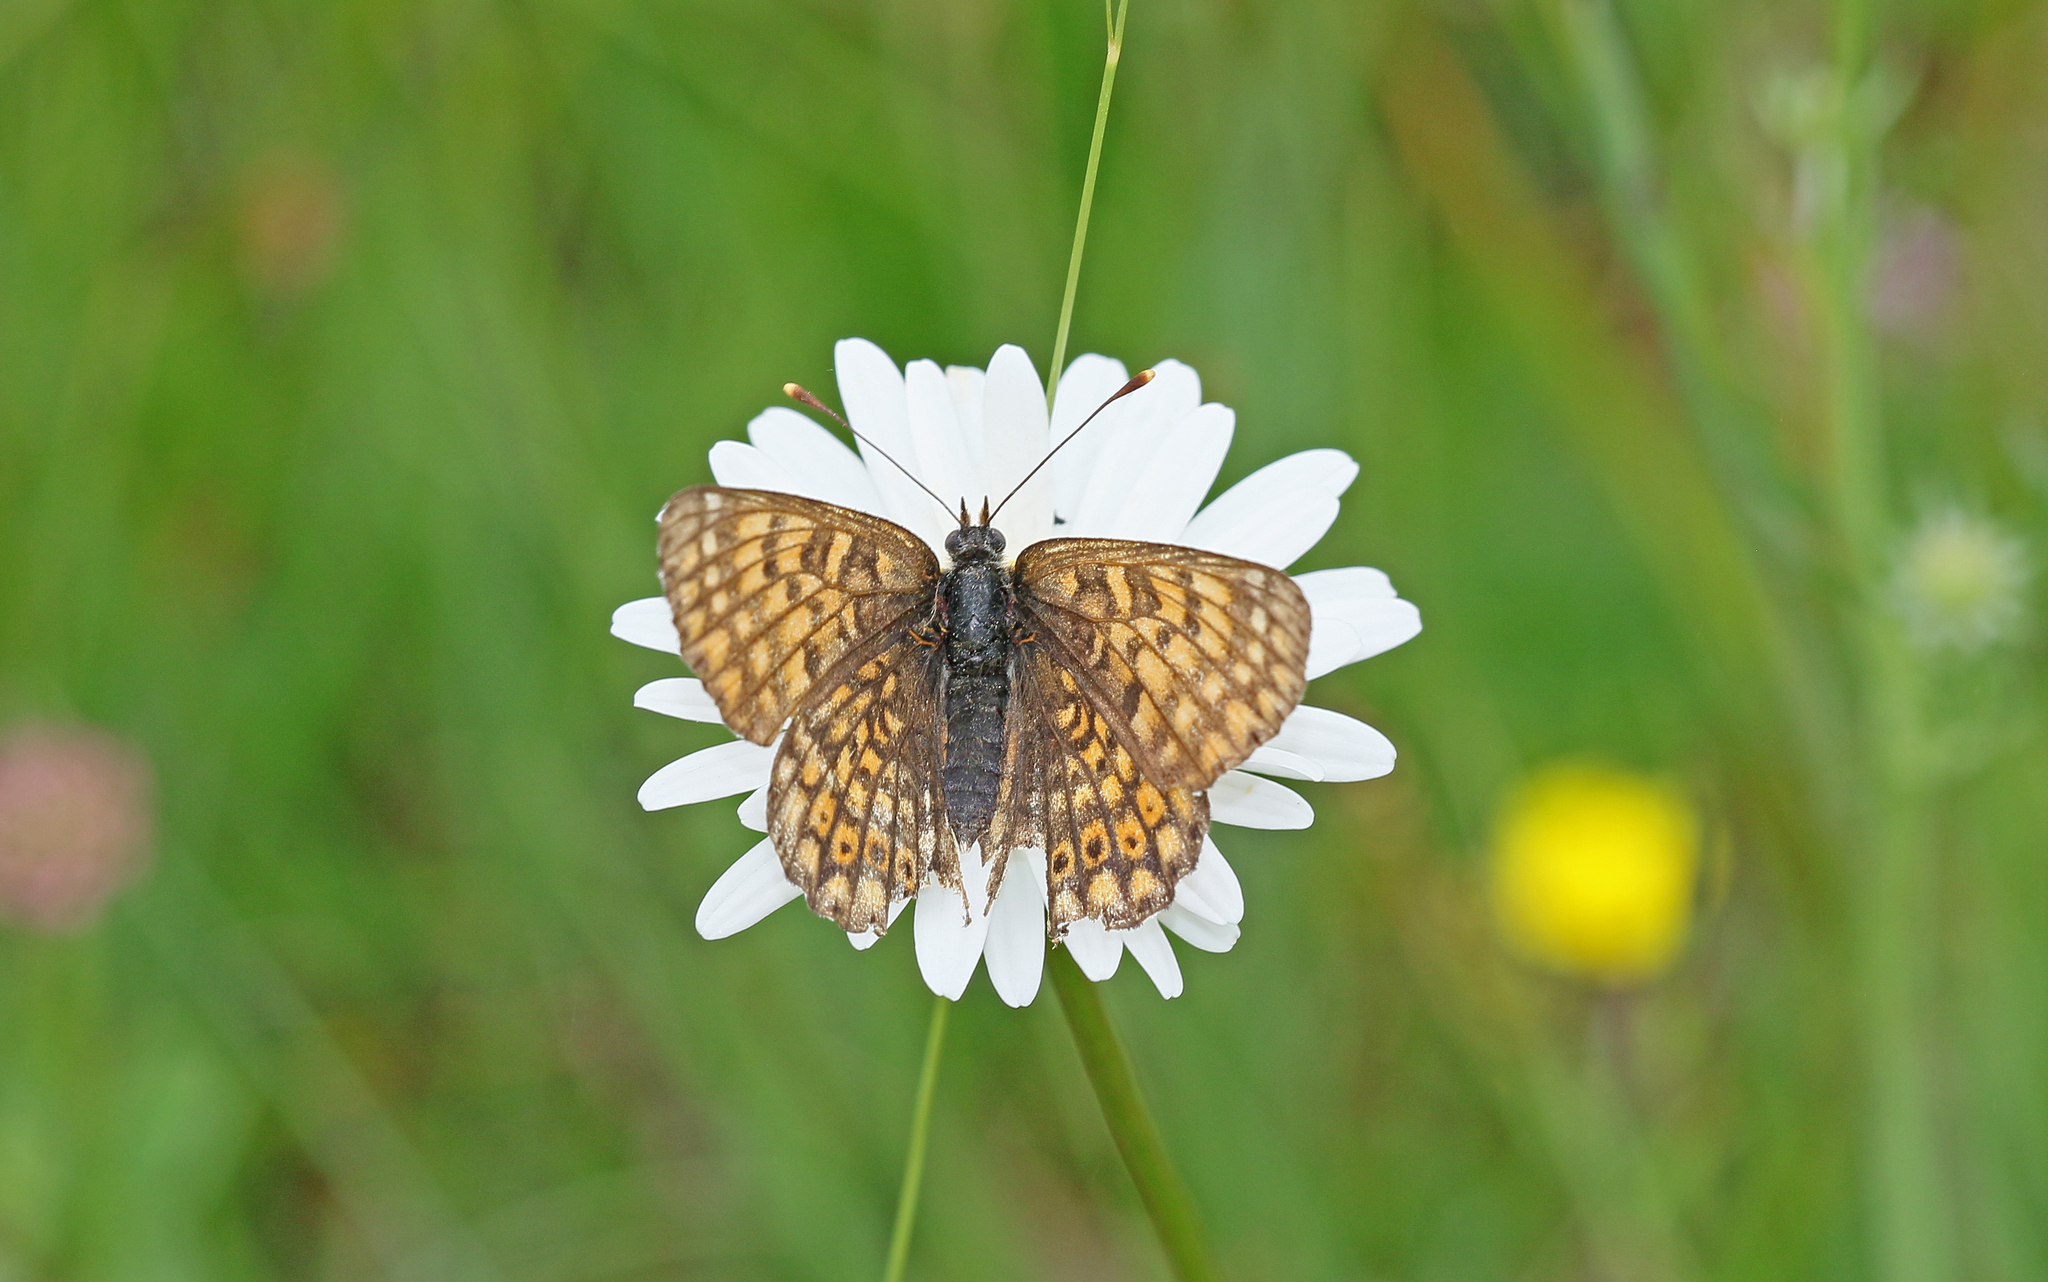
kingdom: Animalia
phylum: Arthropoda
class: Insecta
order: Lepidoptera
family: Nymphalidae
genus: Melitaea
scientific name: Melitaea cinxia
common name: Glanville fritillary
